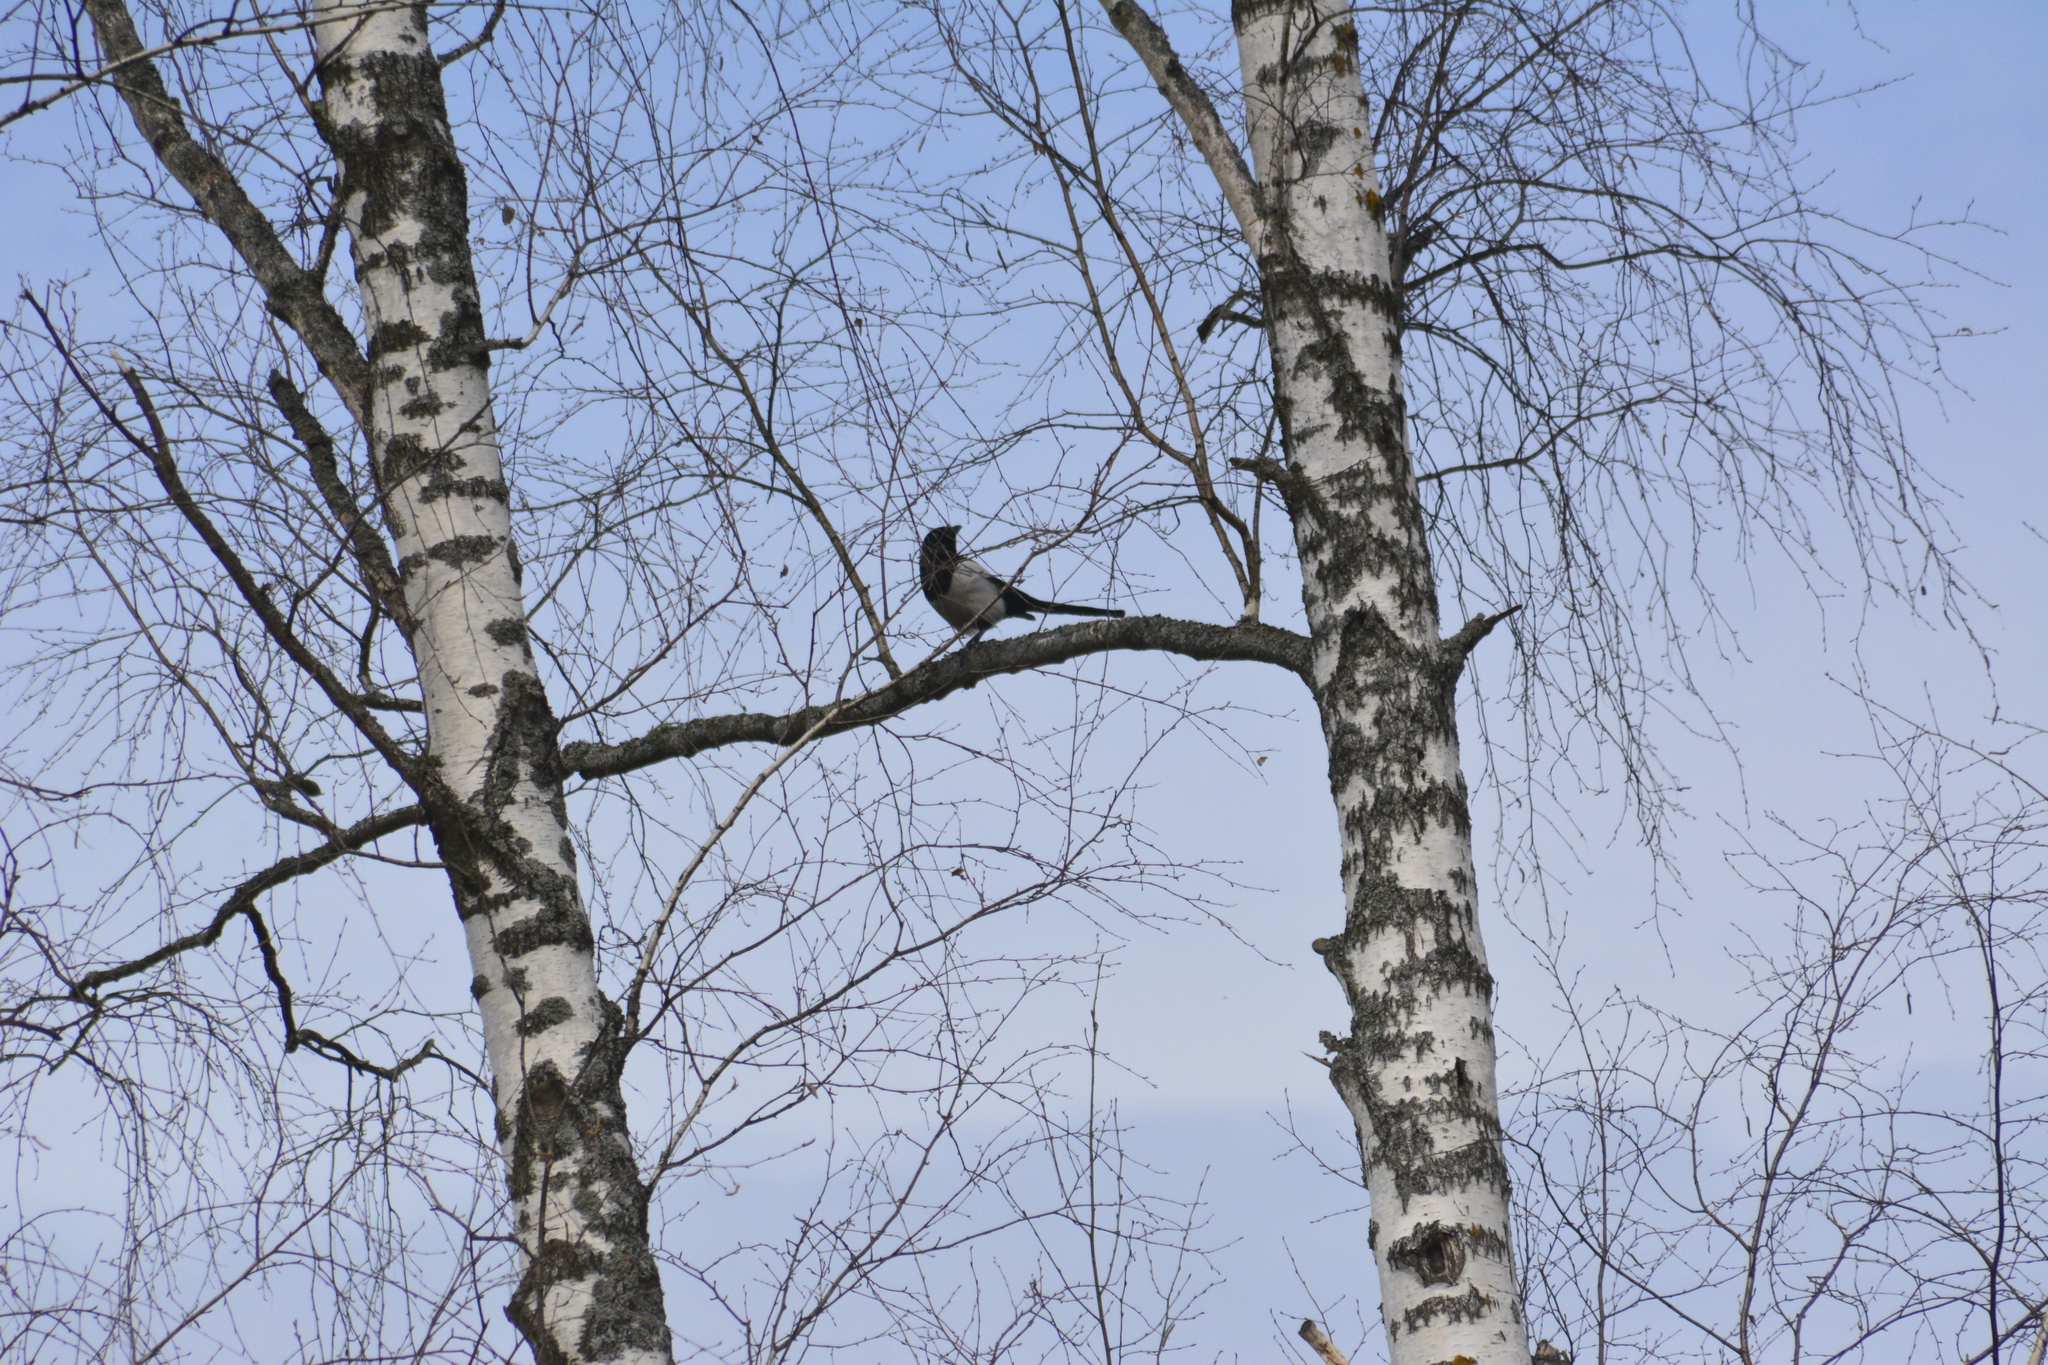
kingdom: Animalia
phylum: Chordata
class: Aves
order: Passeriformes
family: Corvidae
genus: Pica
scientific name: Pica pica
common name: Eurasian magpie
